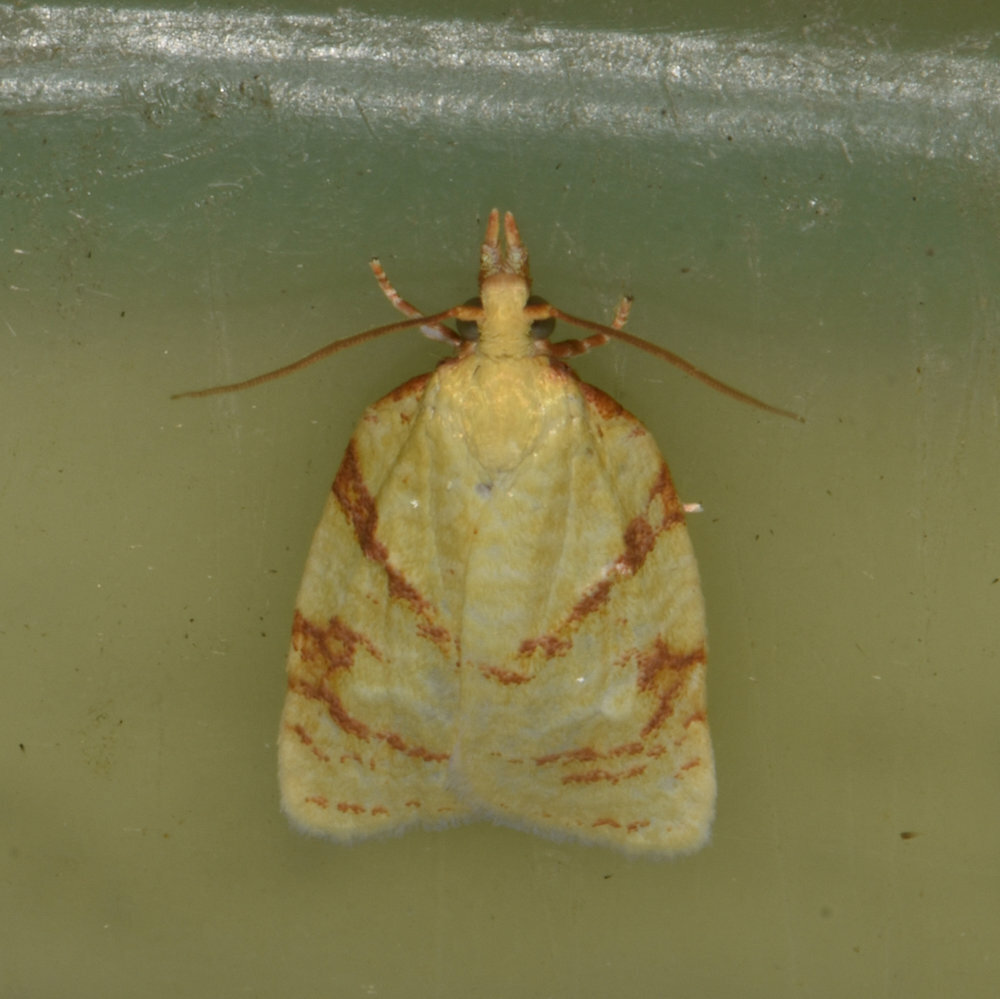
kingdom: Animalia
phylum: Arthropoda
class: Insecta
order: Lepidoptera
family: Tortricidae
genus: Cenopis
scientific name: Cenopis pettitana
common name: Maple-basswood leafroller moth
